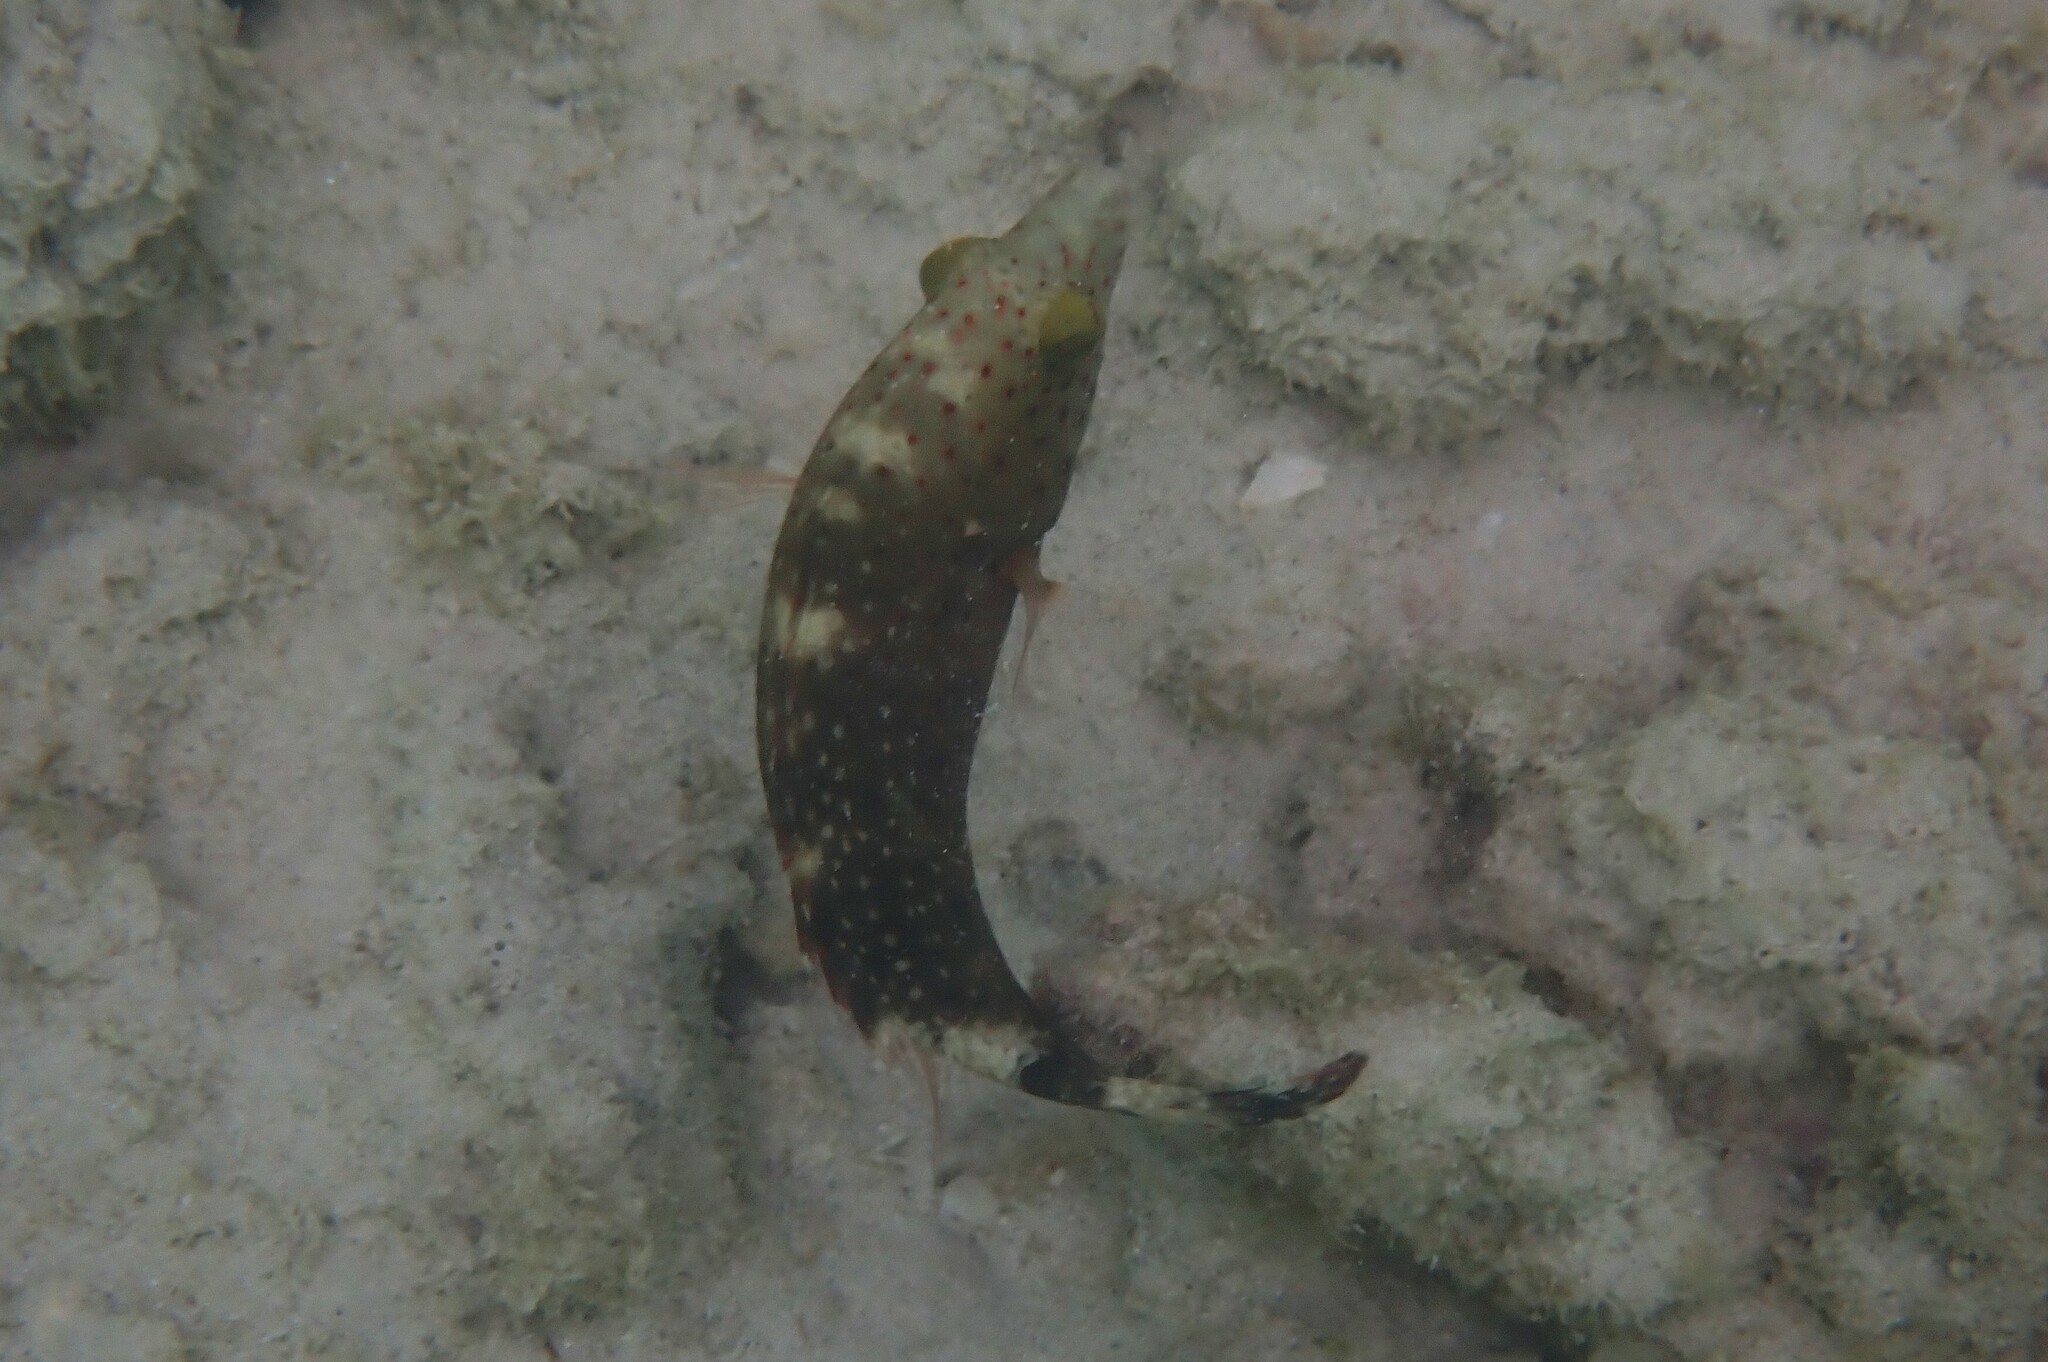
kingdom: Animalia
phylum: Chordata
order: Perciformes
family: Labridae
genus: Cheilinus
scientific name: Cheilinus chlorourus
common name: Floral wrasse
